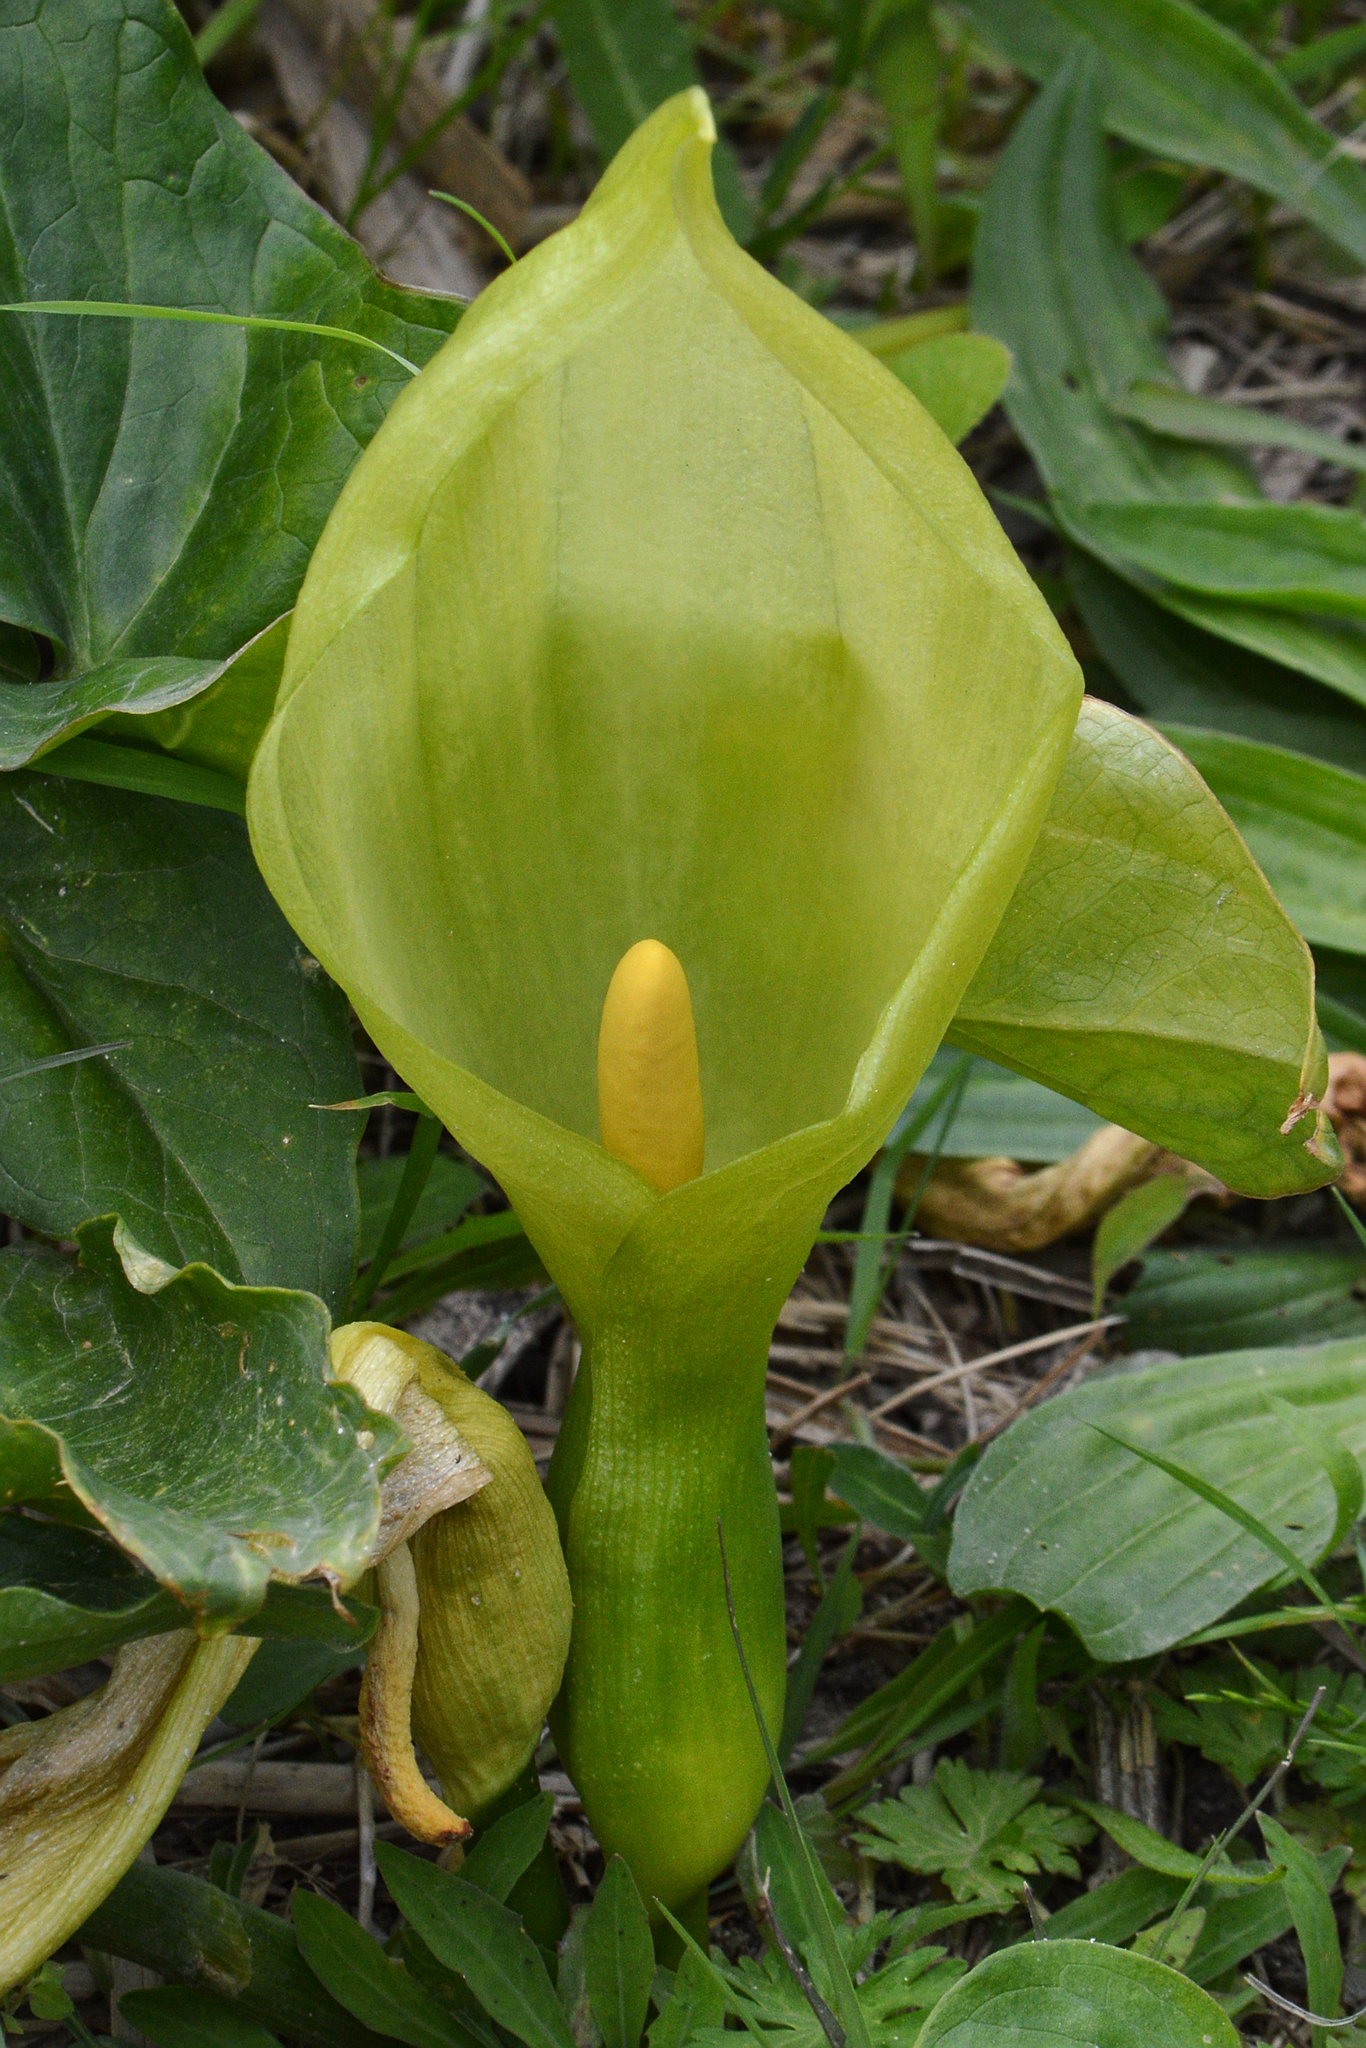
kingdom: Plantae
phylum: Tracheophyta
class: Liliopsida
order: Alismatales
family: Araceae
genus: Arum
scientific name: Arum italicum
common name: Italian lords-and-ladies
